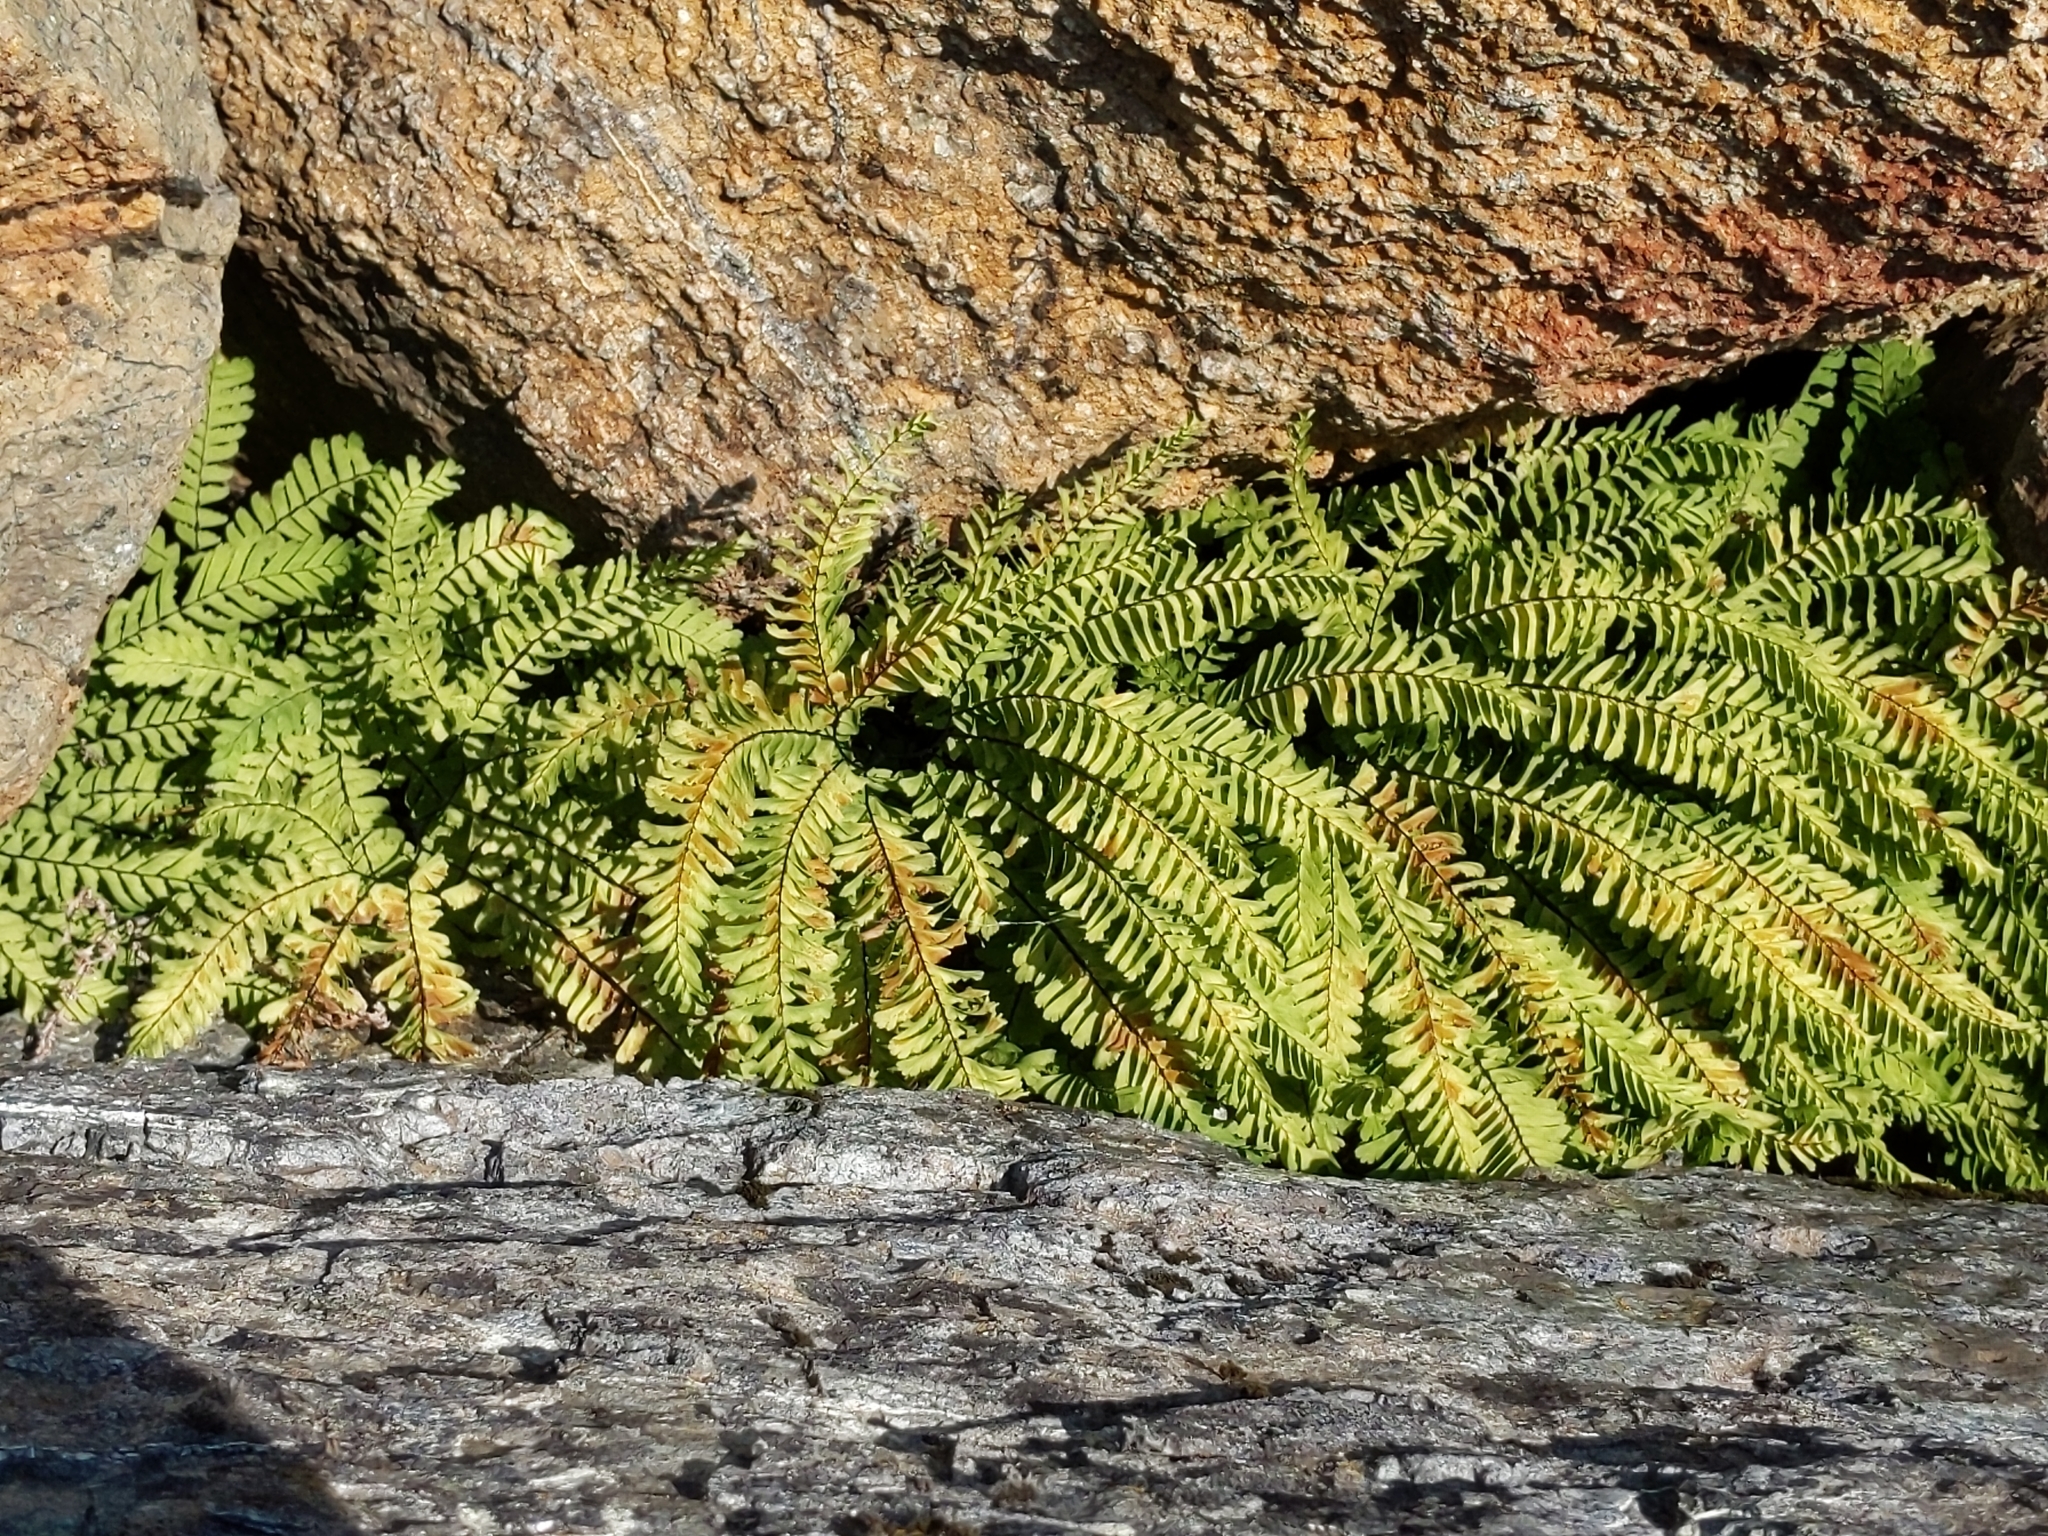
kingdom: Plantae
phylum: Tracheophyta
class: Polypodiopsida
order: Polypodiales
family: Pteridaceae
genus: Adiantum
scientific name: Adiantum aleuticum
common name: Aleutian maidenhair fern
